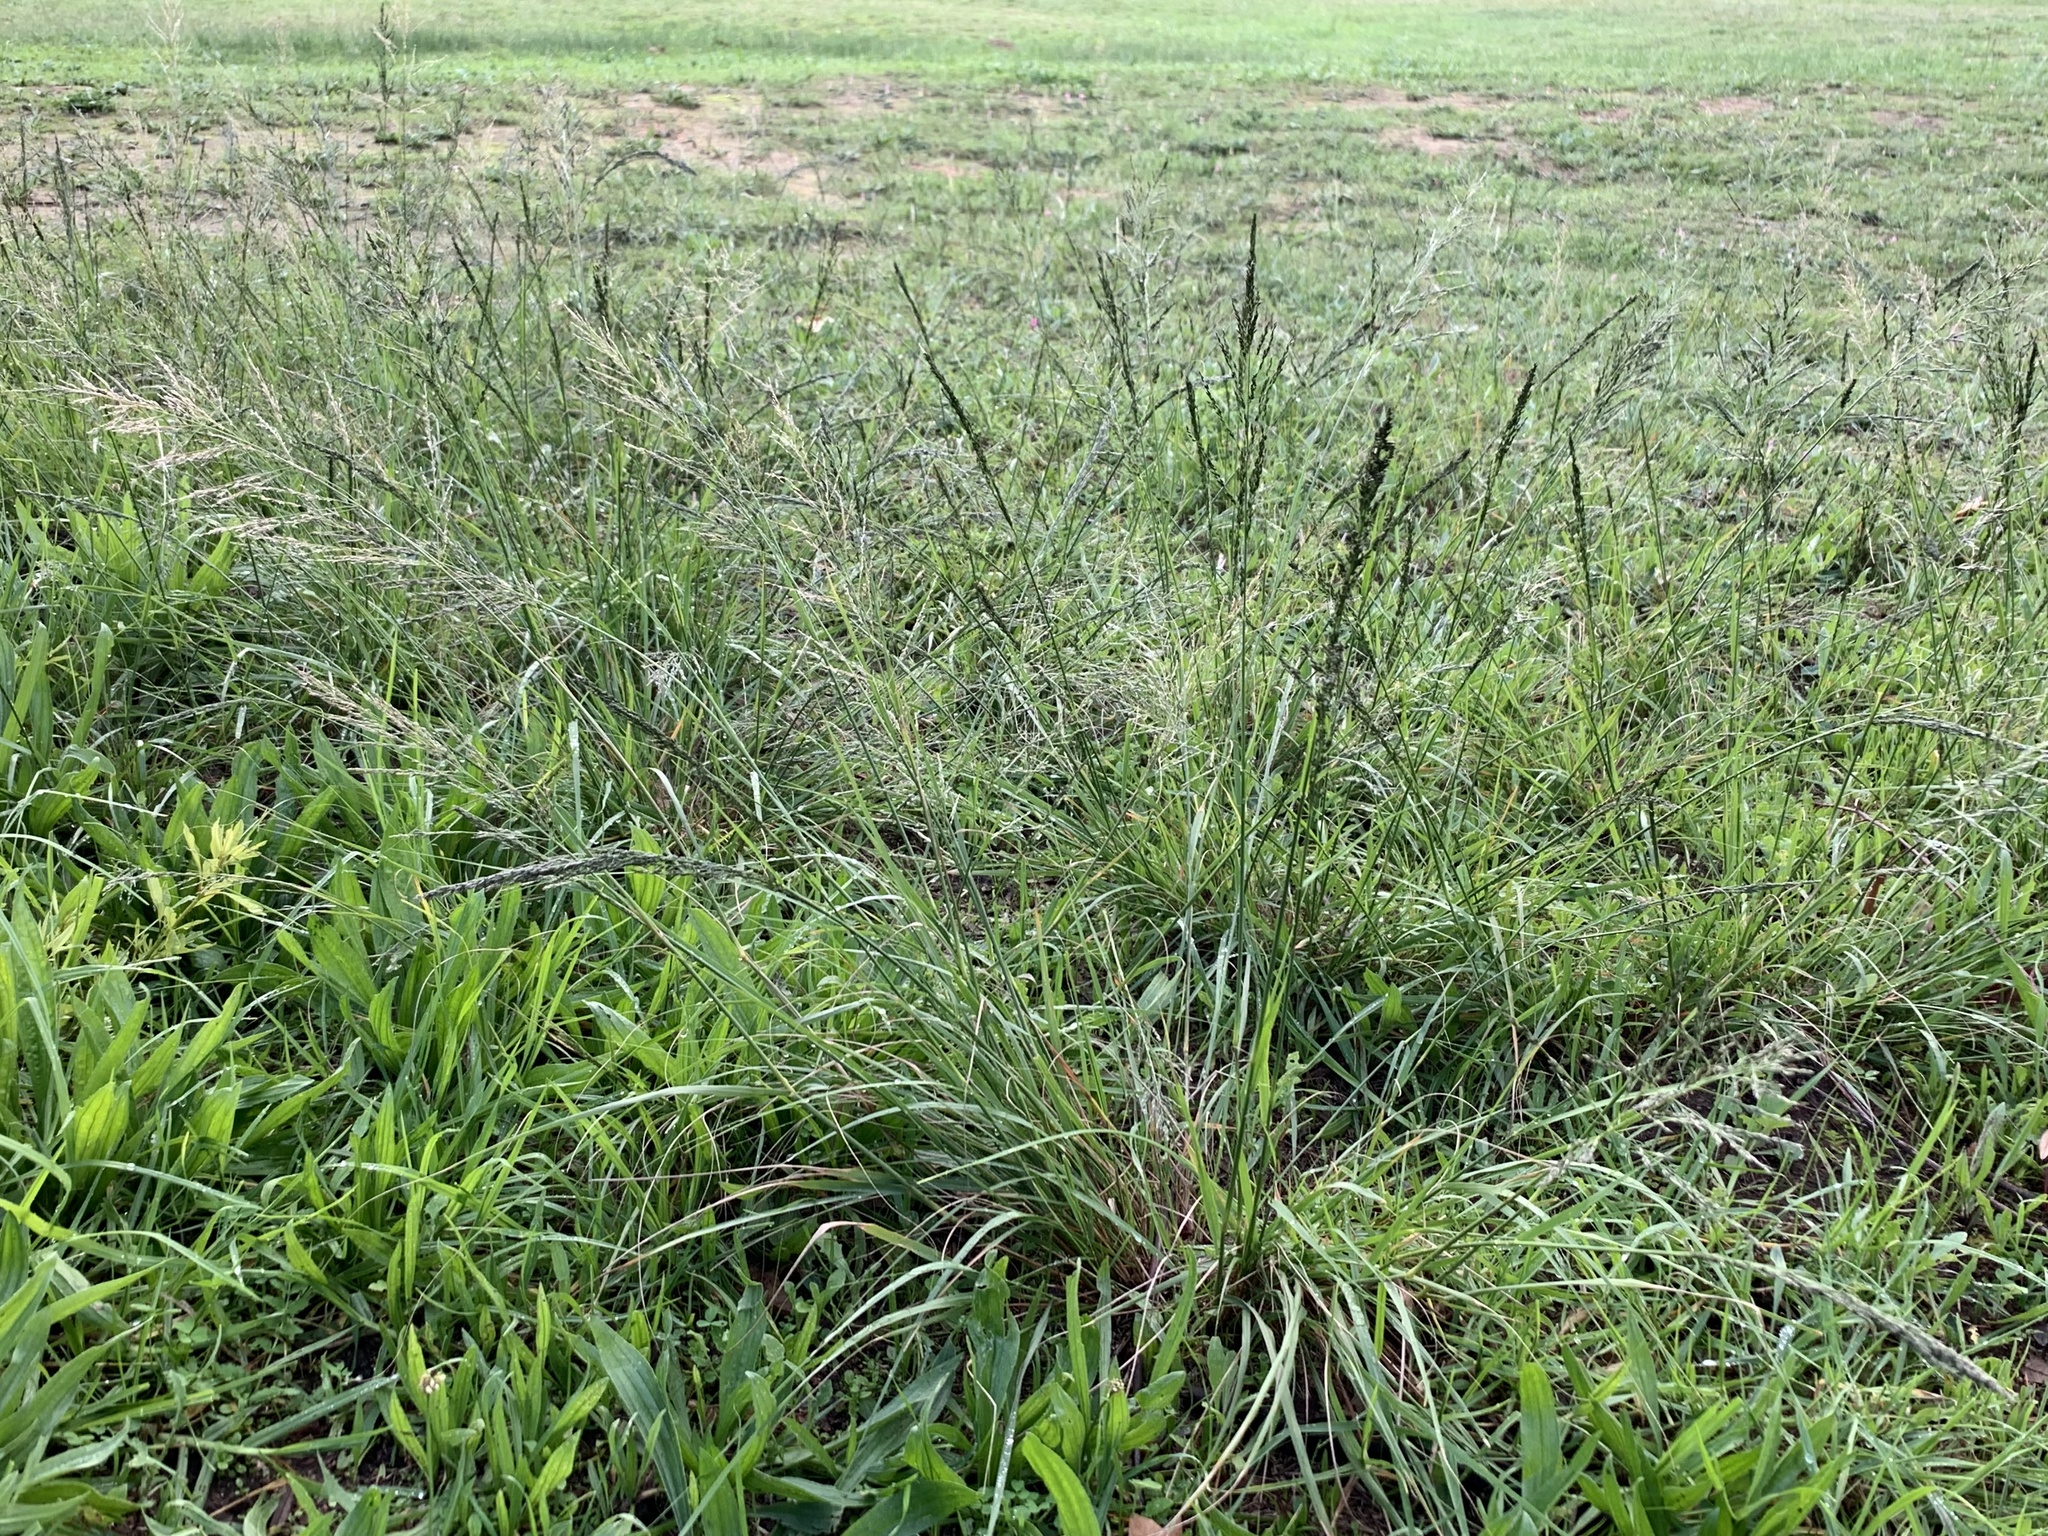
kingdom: Plantae
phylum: Tracheophyta
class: Liliopsida
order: Poales
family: Poaceae
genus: Eragrostis
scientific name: Eragrostis curvula
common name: African love-grass
